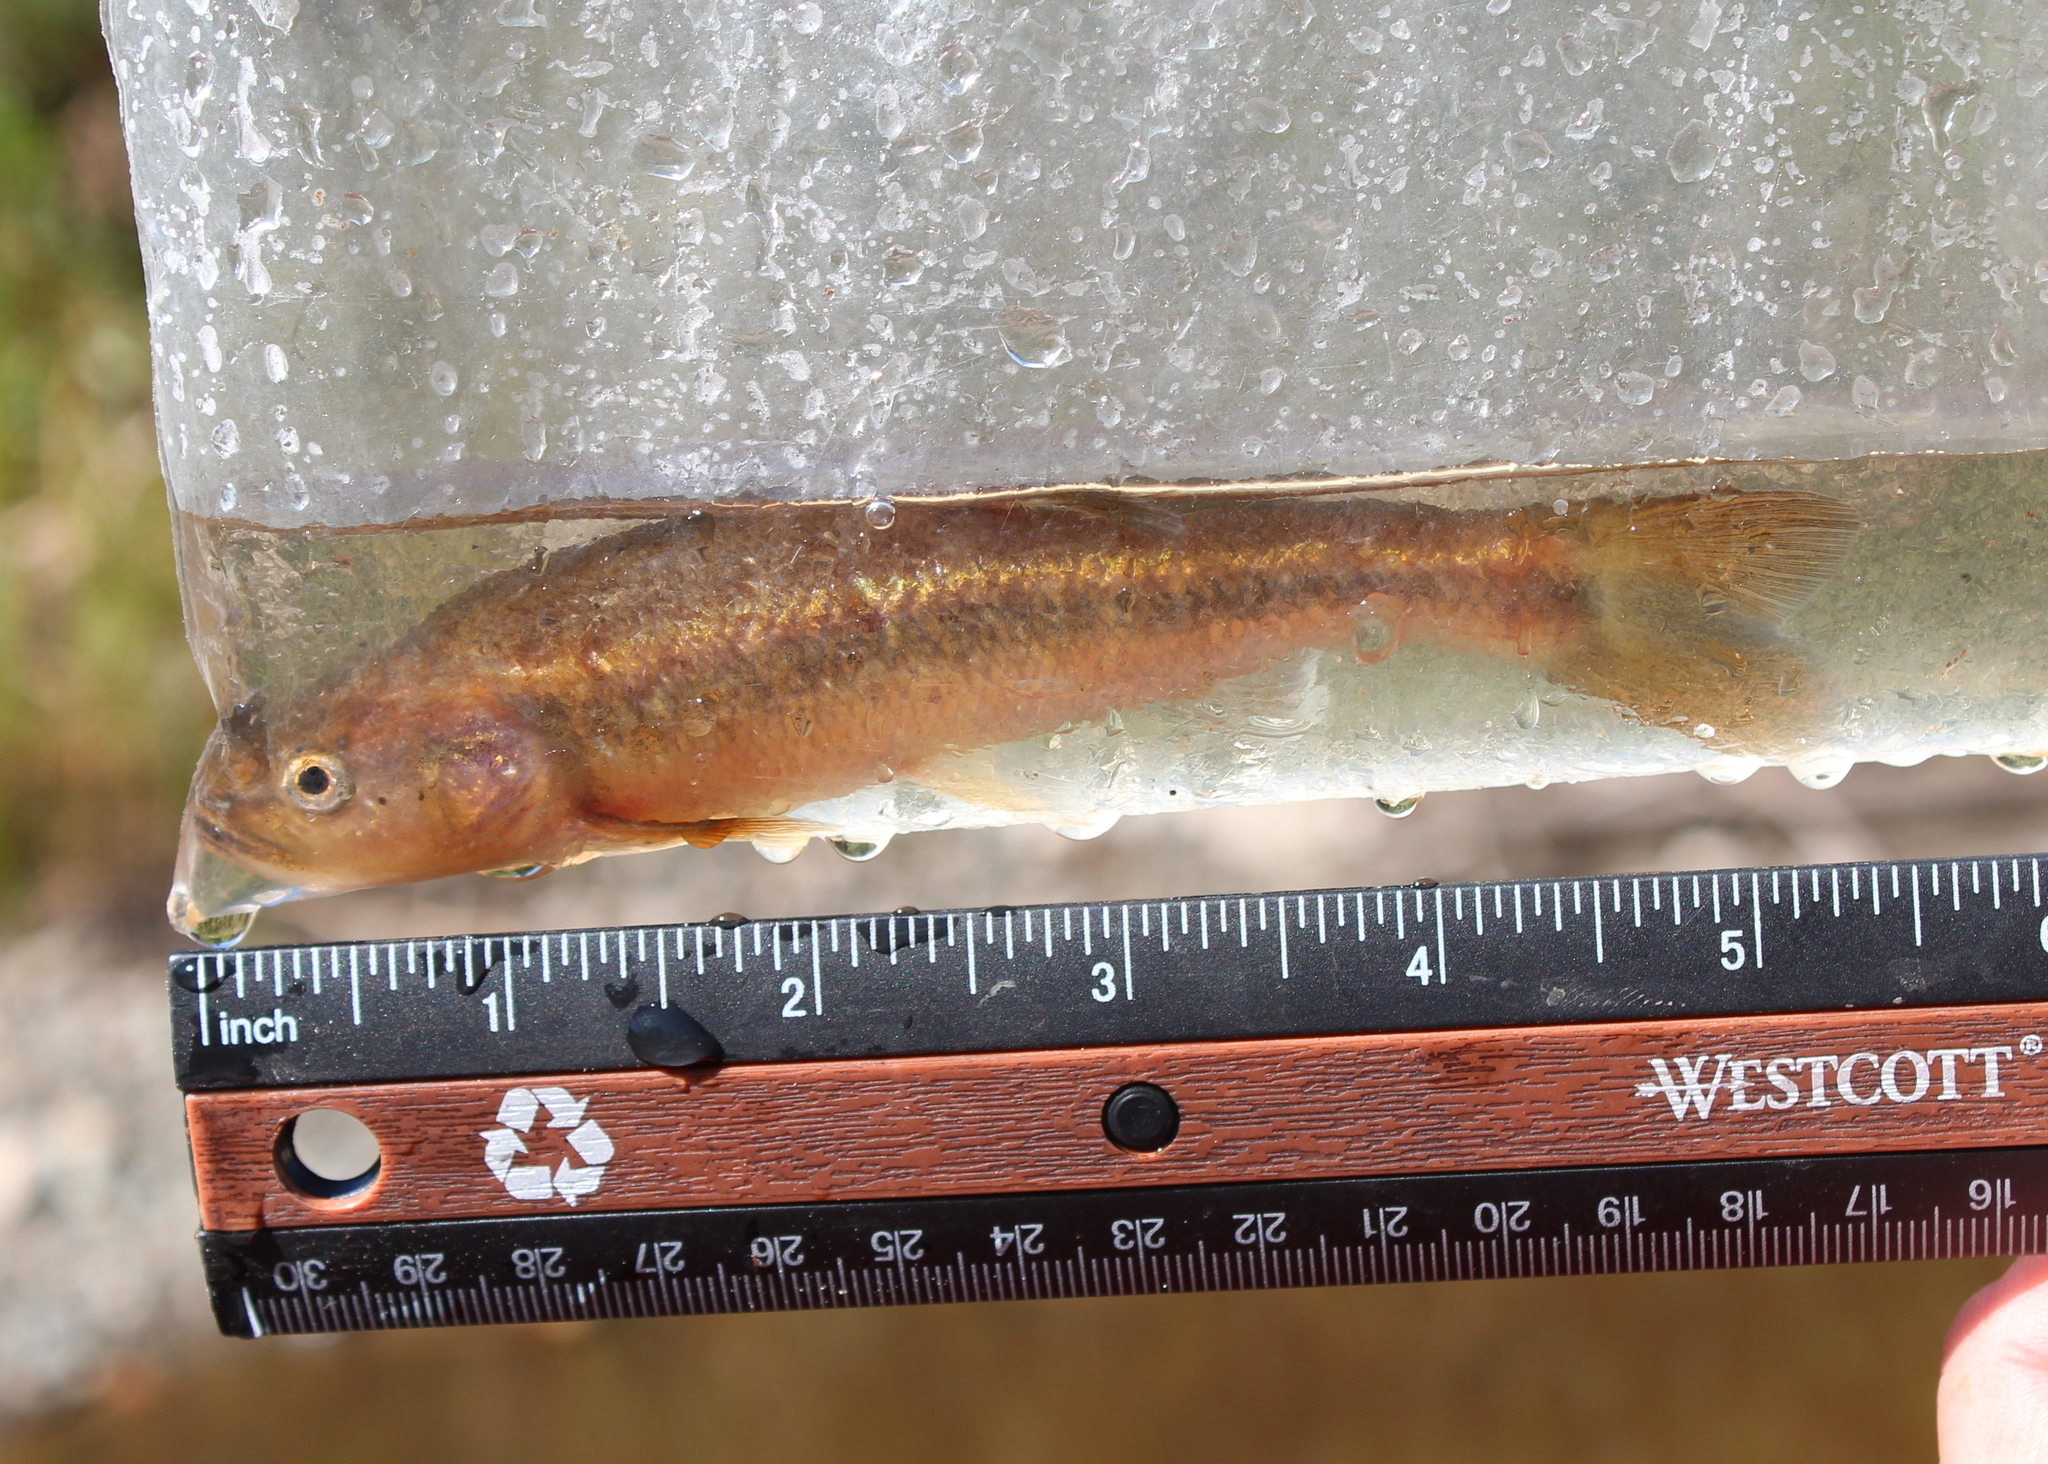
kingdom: Animalia
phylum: Chordata
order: Cypriniformes
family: Cyprinidae
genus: Semotilus
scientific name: Semotilus atromaculatus
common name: Creek chub
